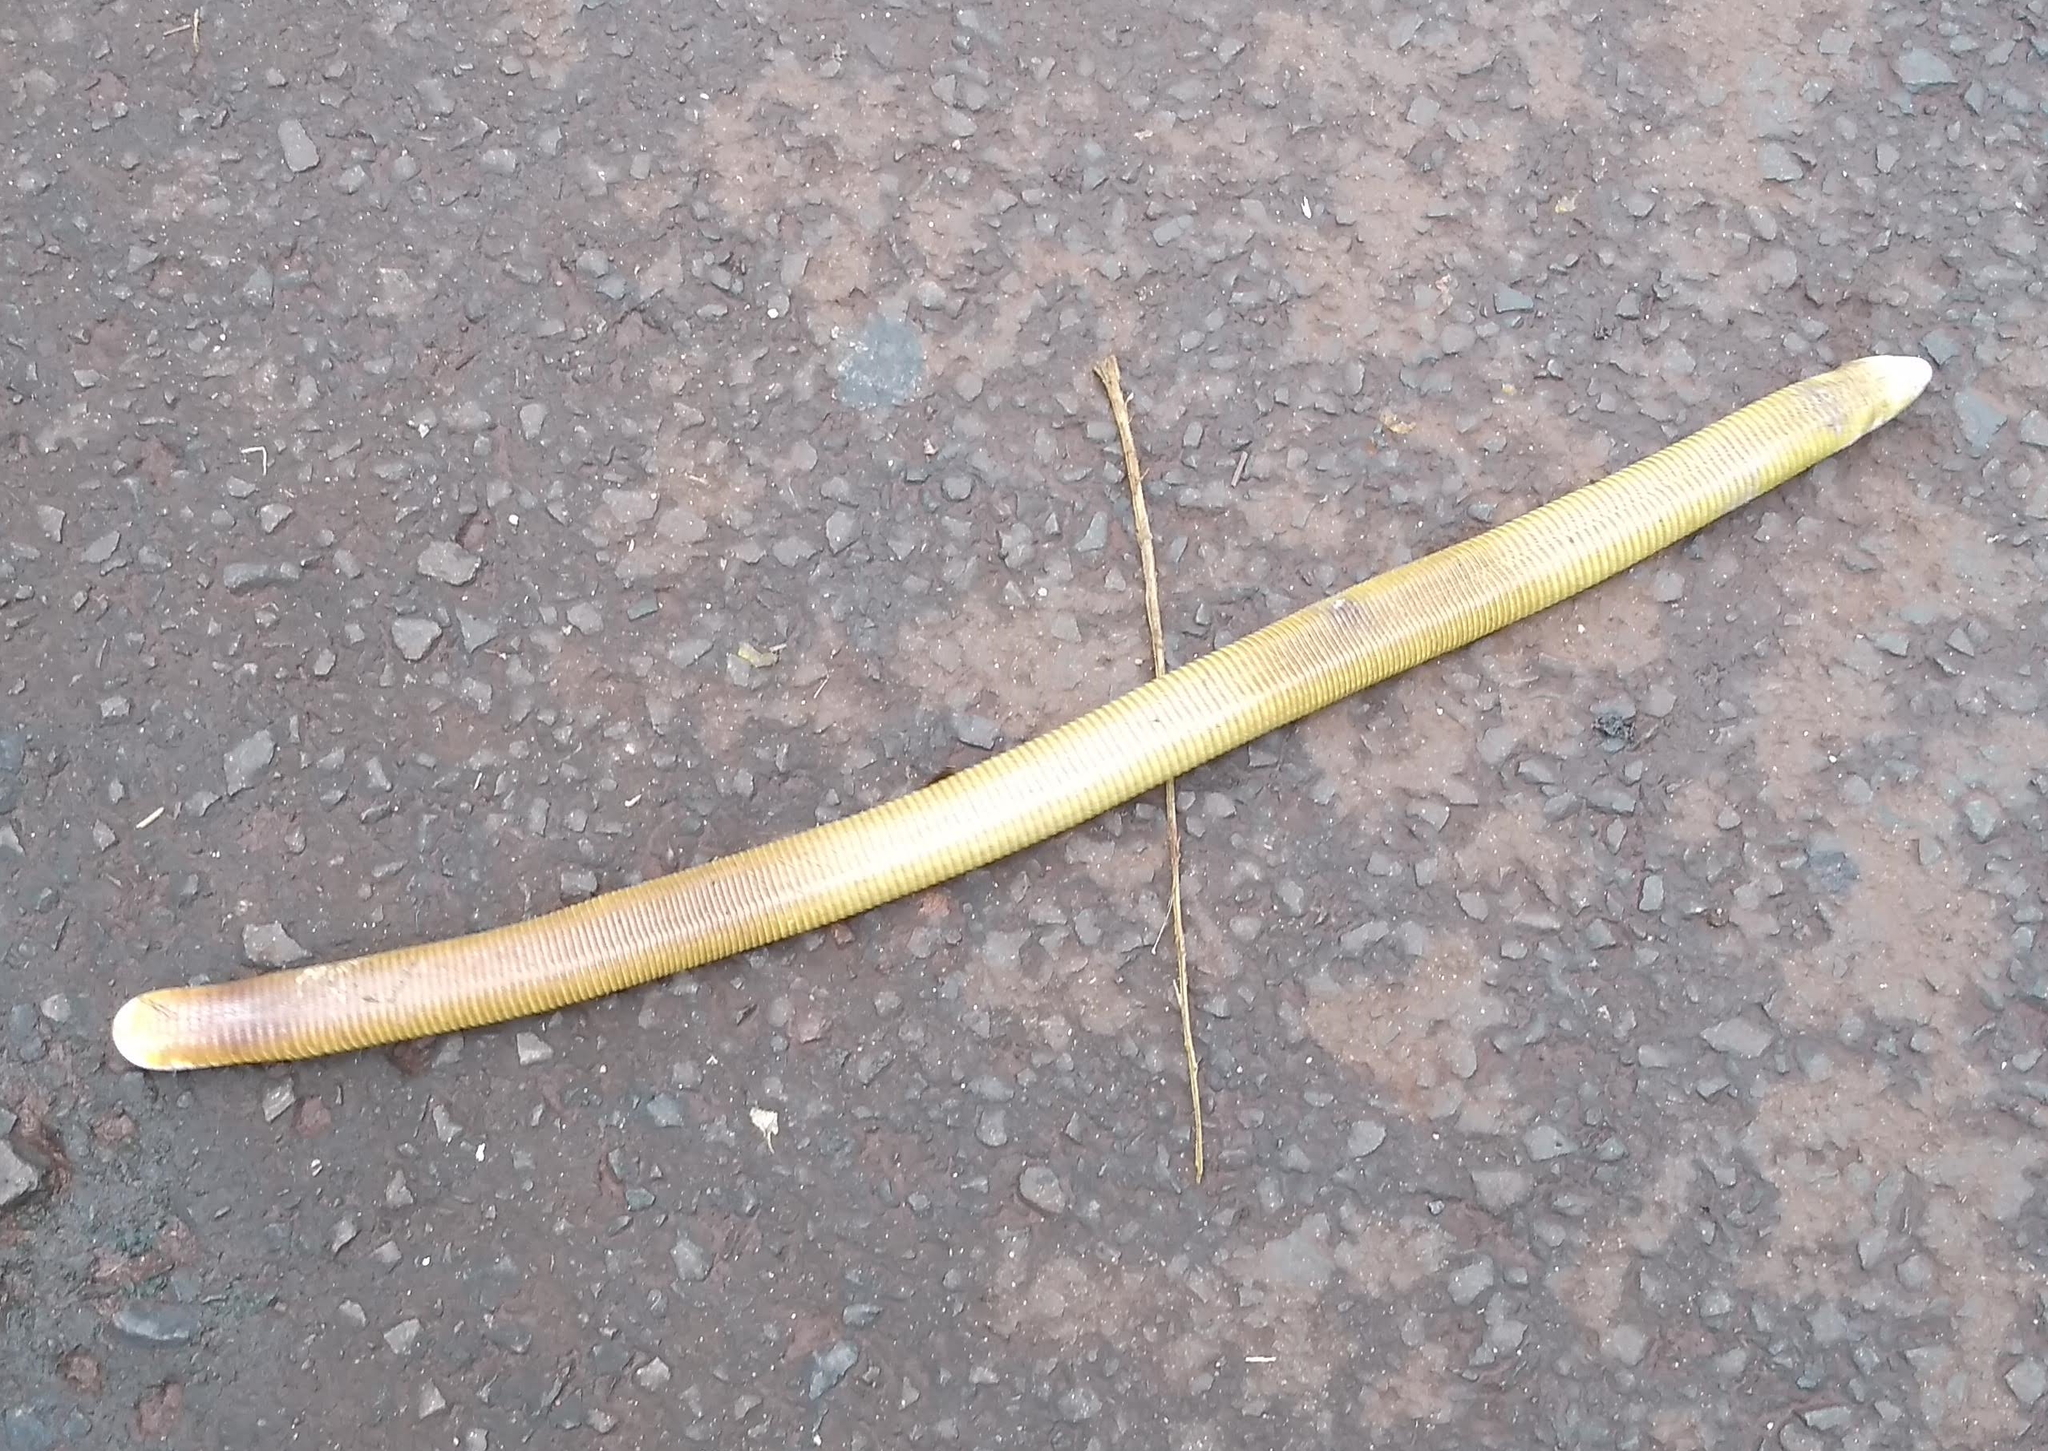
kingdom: Animalia
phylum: Chordata
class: Squamata
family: Amphisbaenidae
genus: Amphisbaena
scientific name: Amphisbaena alba
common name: Red worm lizard
